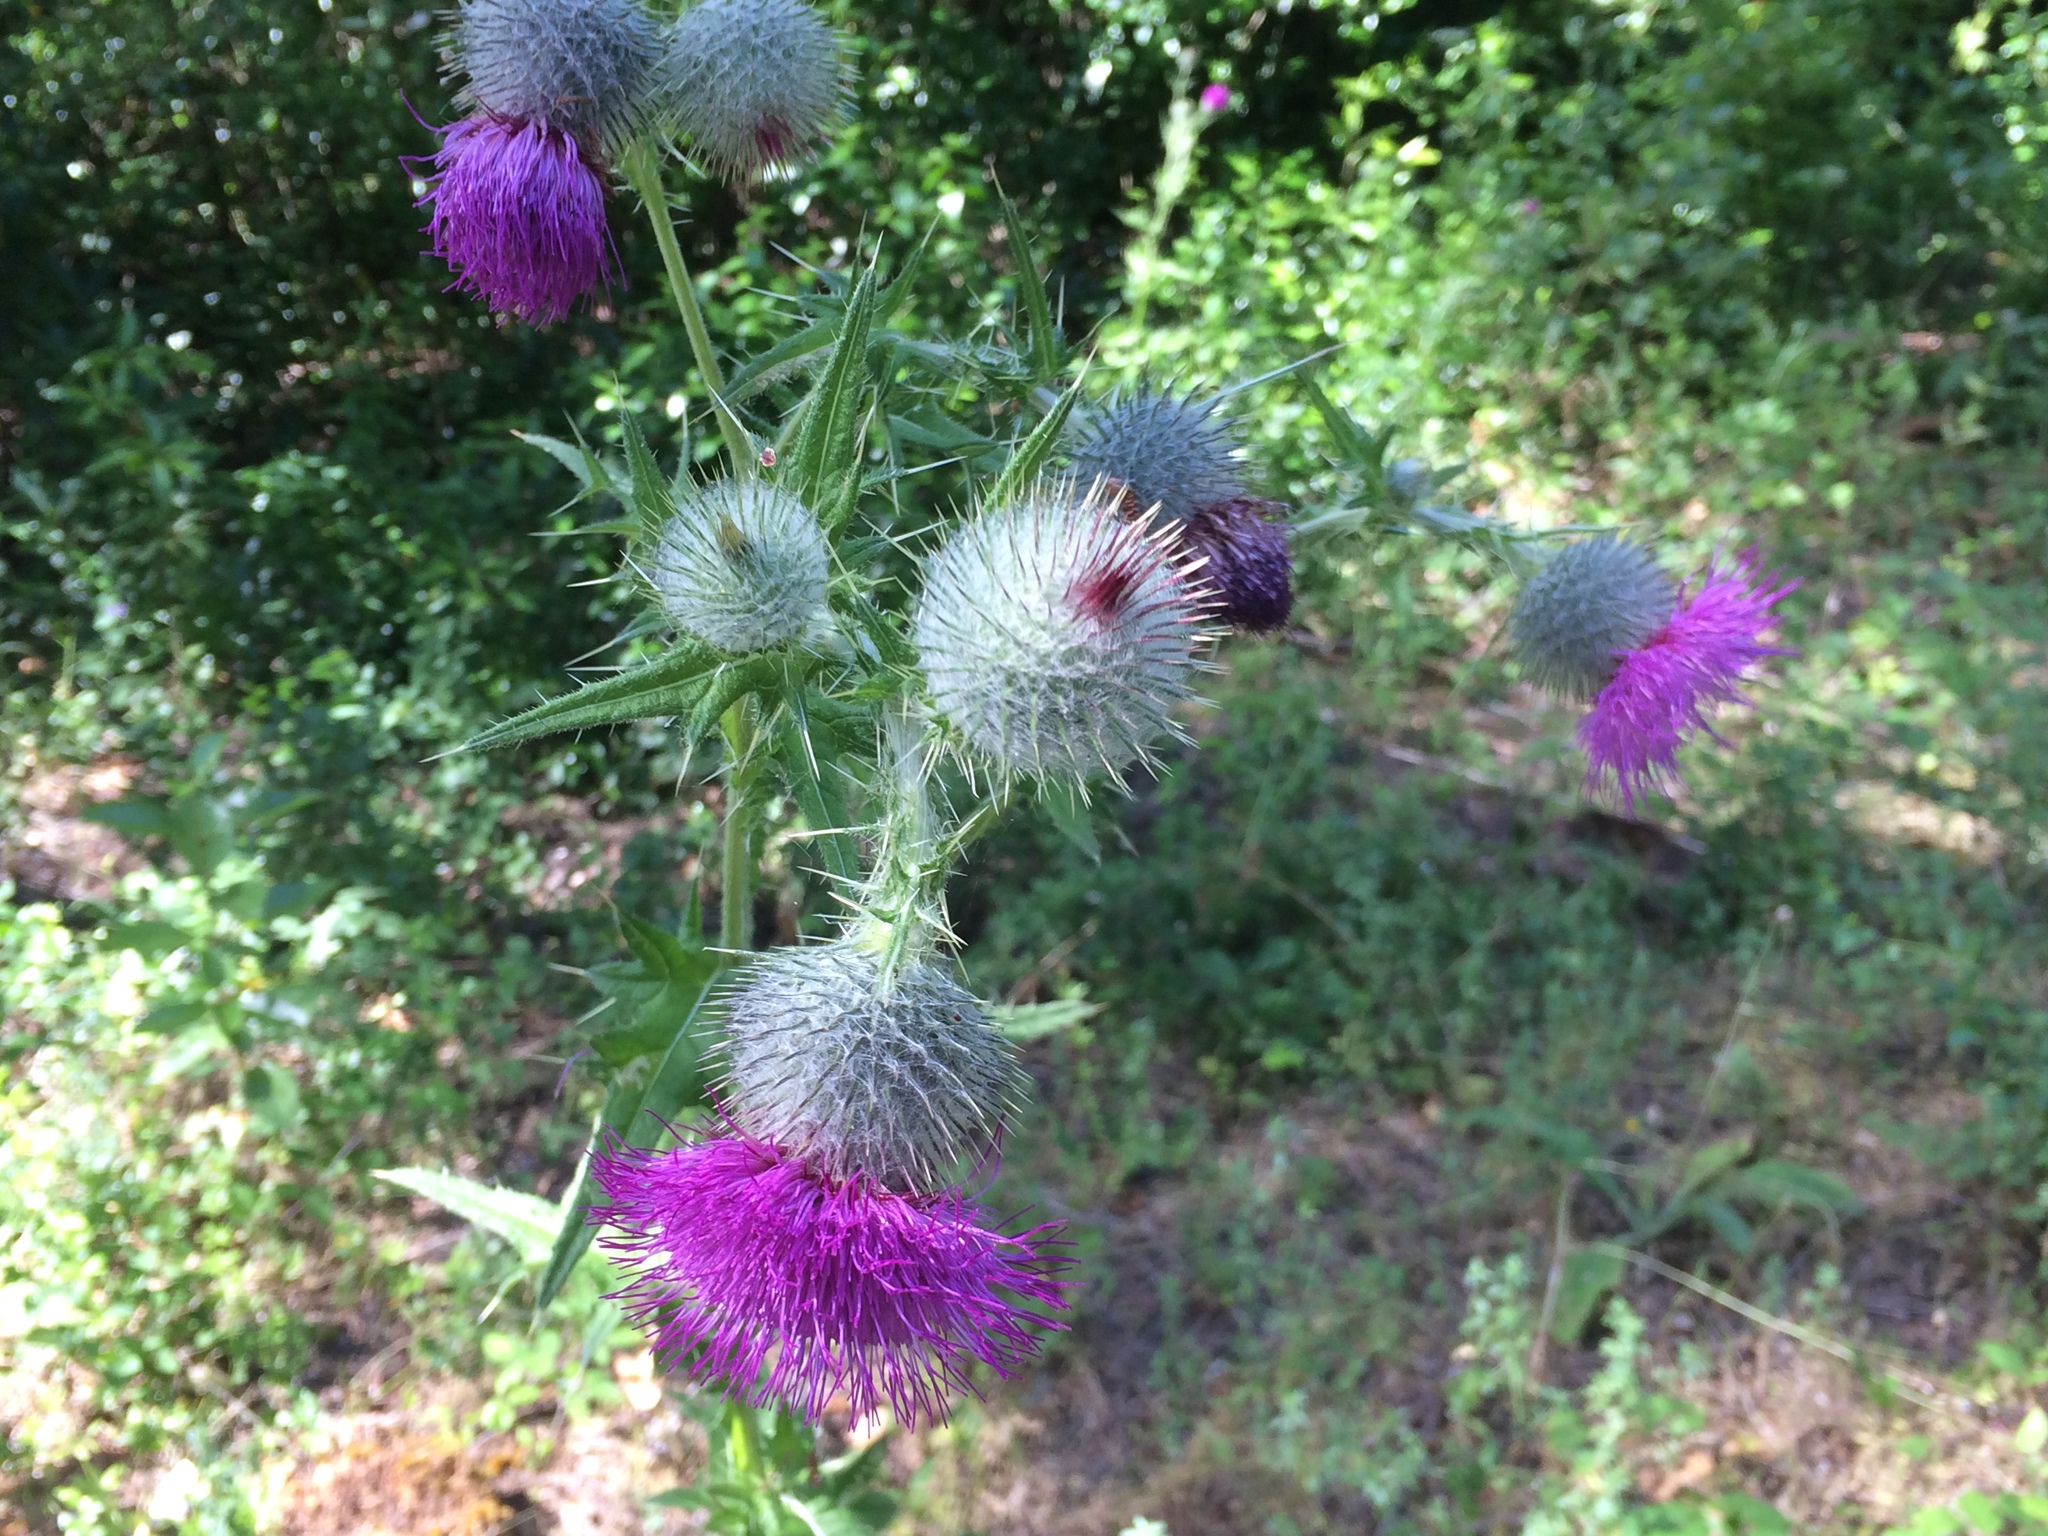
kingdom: Plantae
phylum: Tracheophyta
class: Magnoliopsida
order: Asterales
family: Asteraceae
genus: Cirsium
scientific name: Cirsium vulgare
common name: Bull thistle
